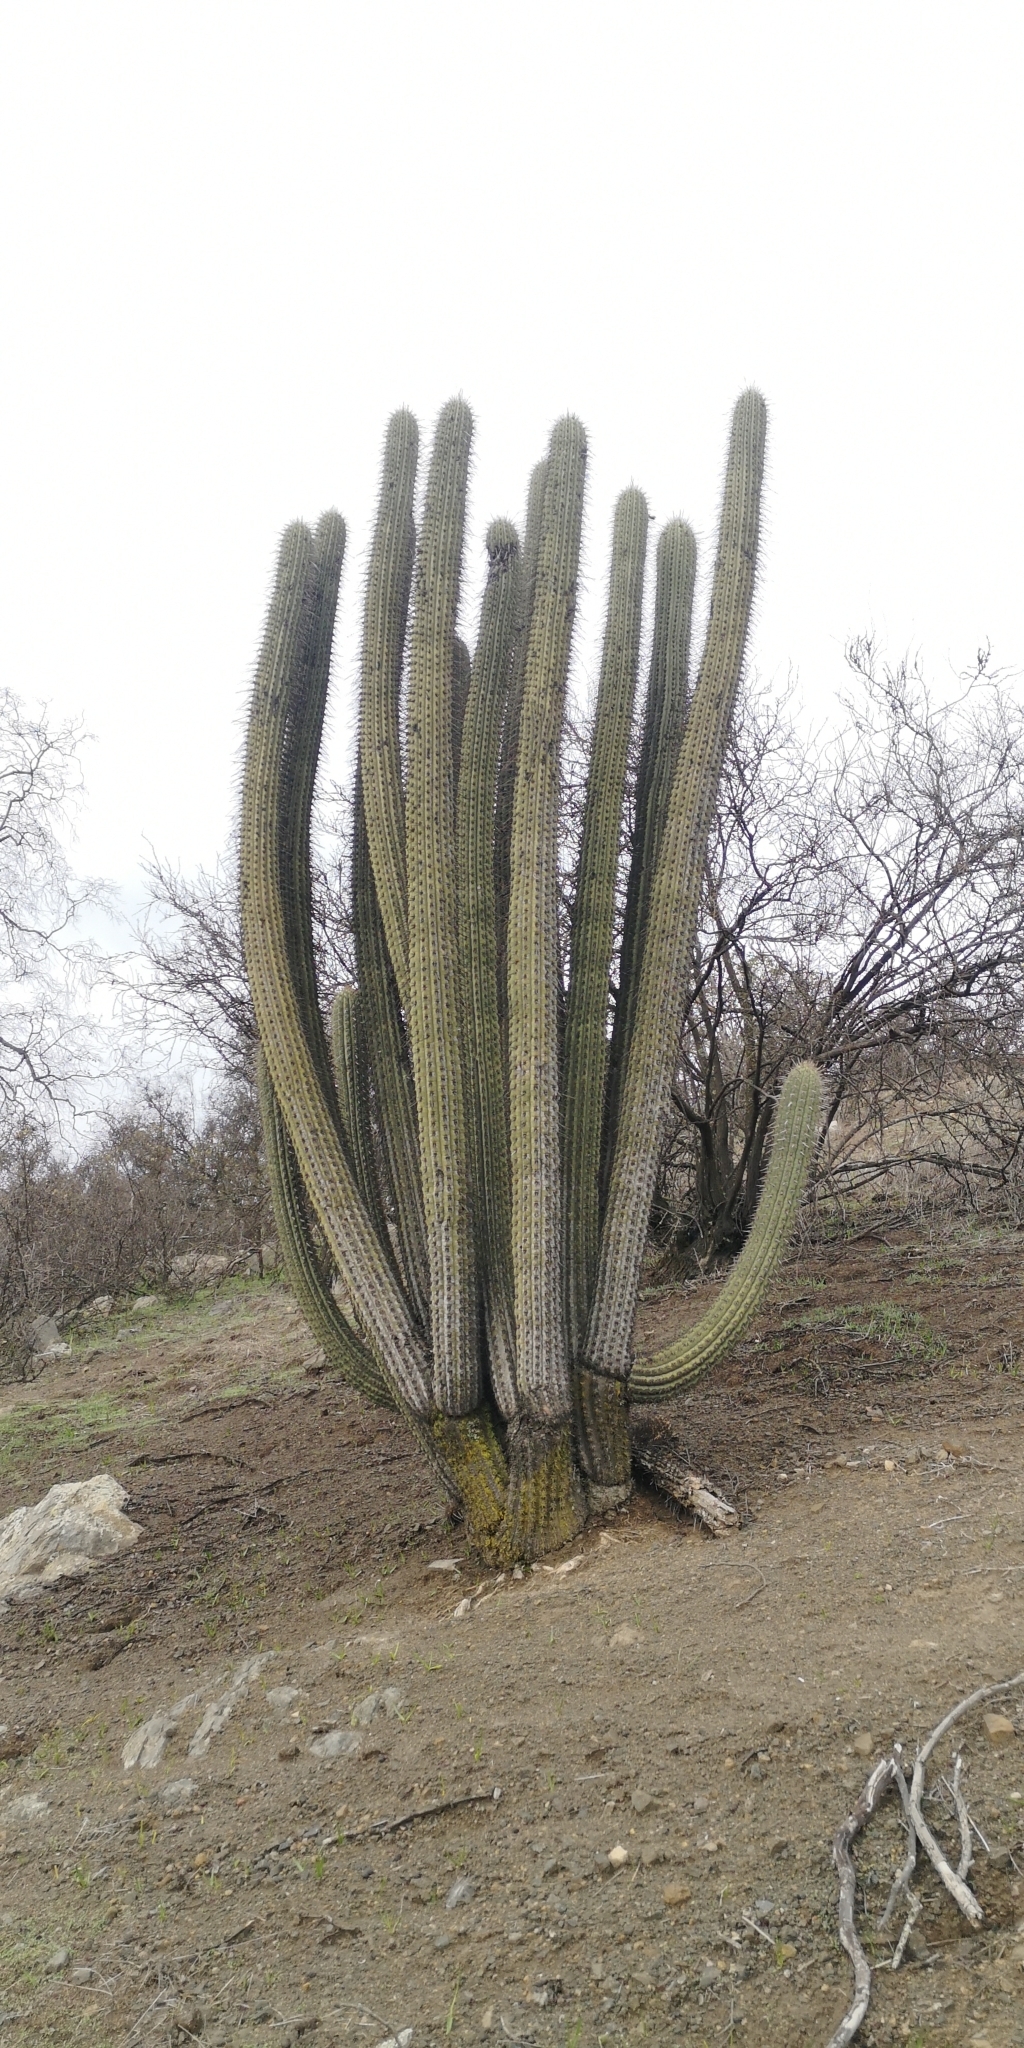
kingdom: Plantae
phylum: Tracheophyta
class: Magnoliopsida
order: Caryophyllales
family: Cactaceae
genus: Leucostele
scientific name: Leucostele chiloensis
